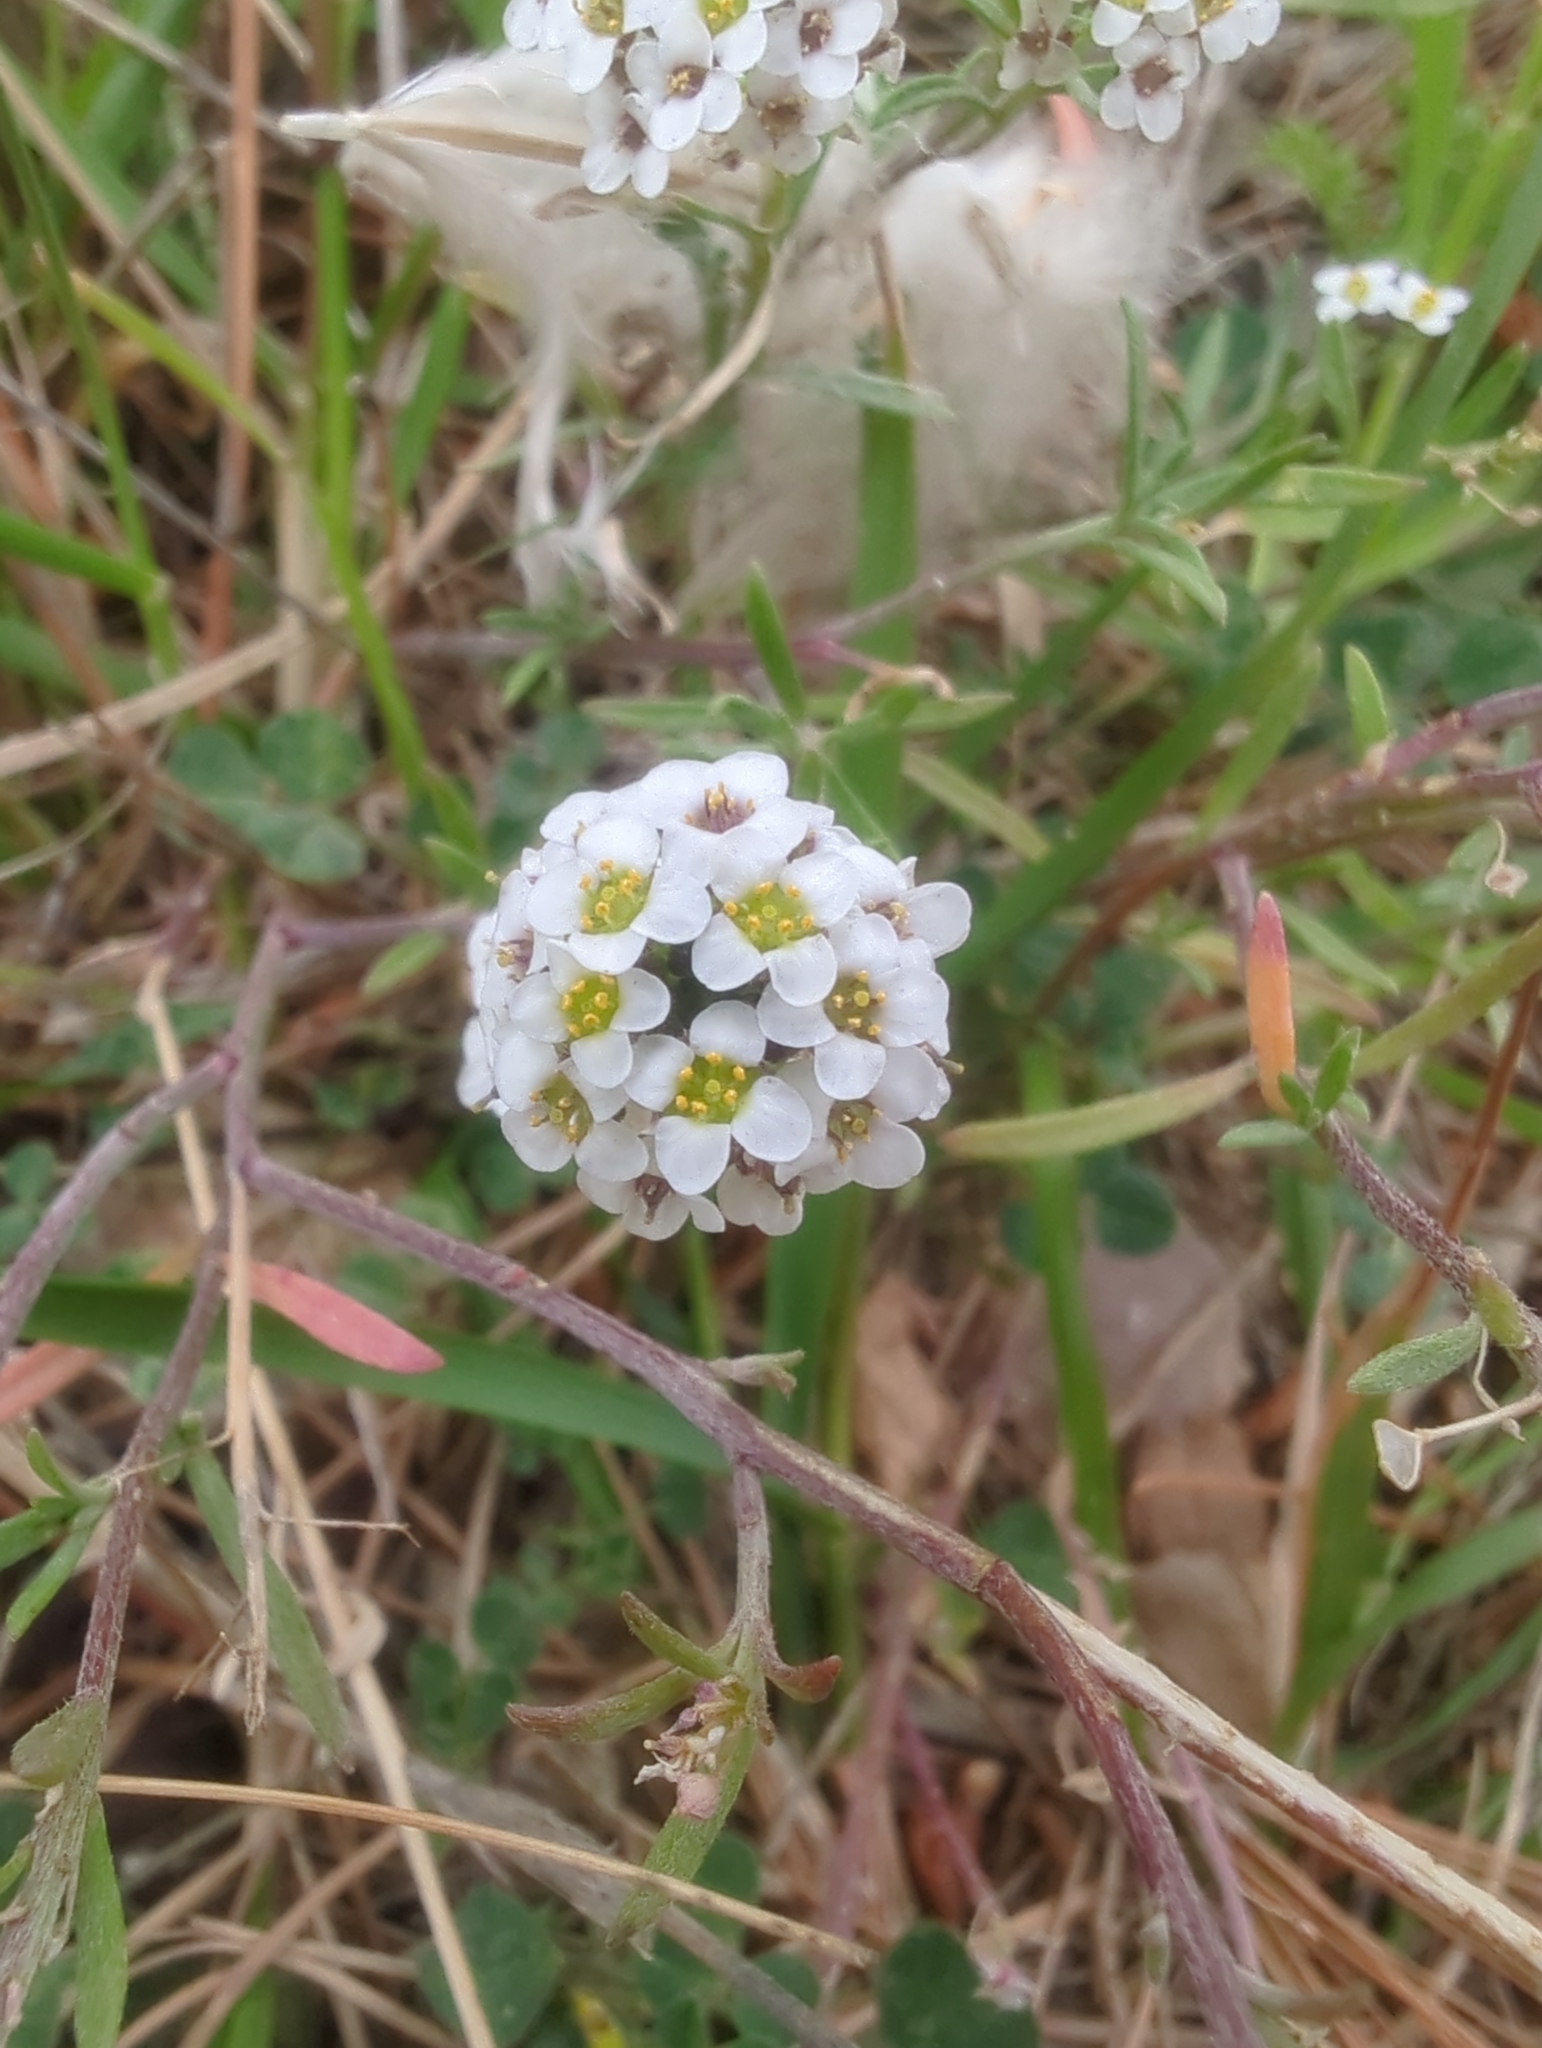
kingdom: Plantae
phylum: Tracheophyta
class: Magnoliopsida
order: Brassicales
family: Brassicaceae
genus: Lobularia
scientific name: Lobularia maritima
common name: Sweet alison
